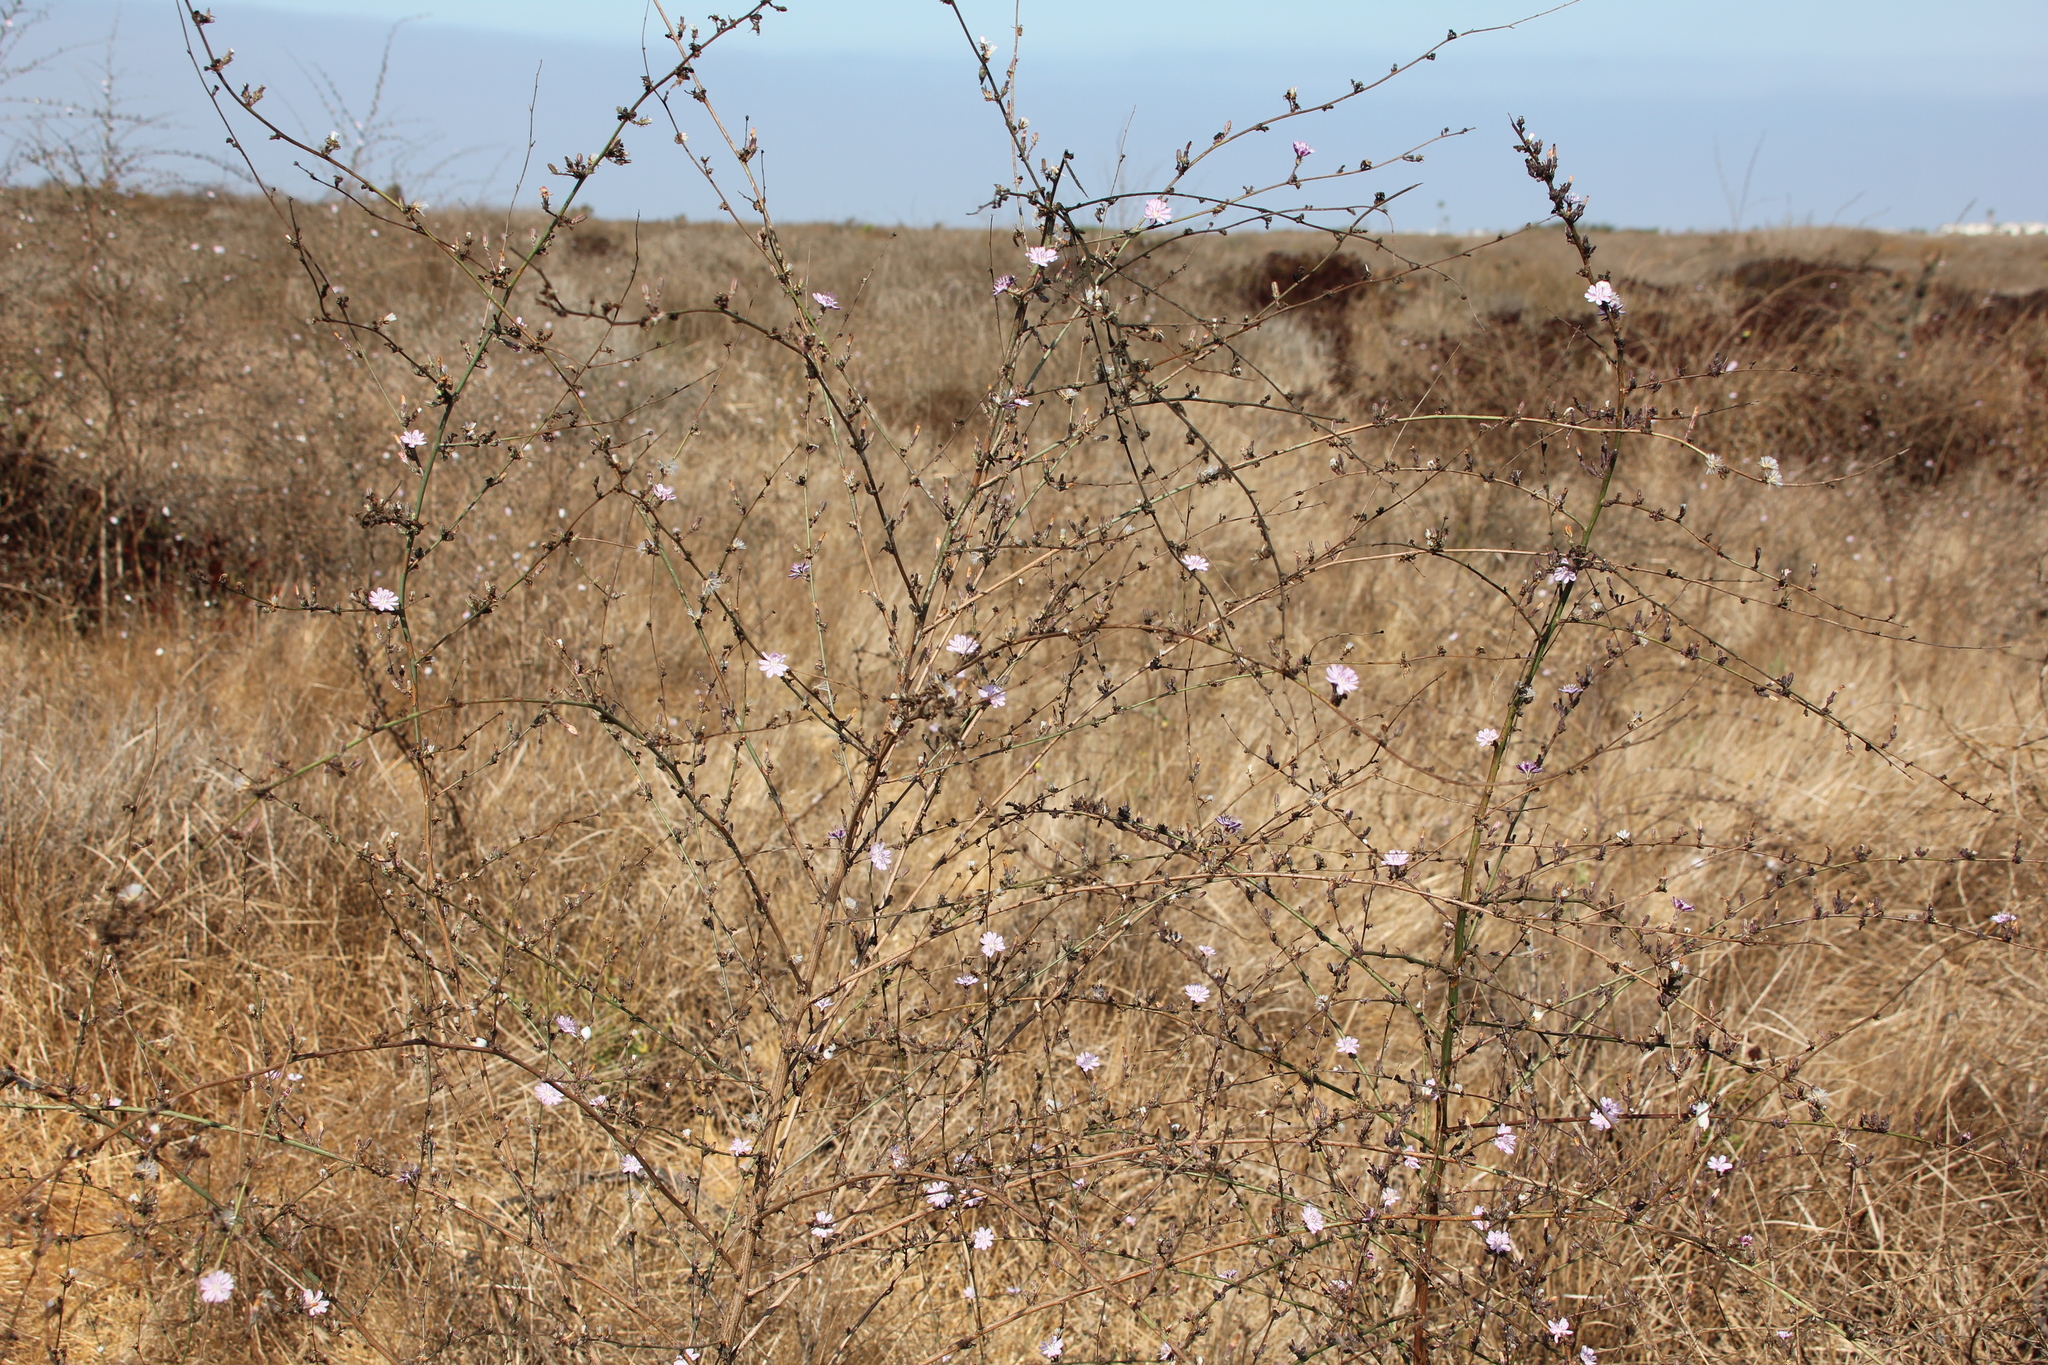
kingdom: Plantae
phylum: Tracheophyta
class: Magnoliopsida
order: Asterales
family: Asteraceae
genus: Stephanomeria
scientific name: Stephanomeria diegensis
